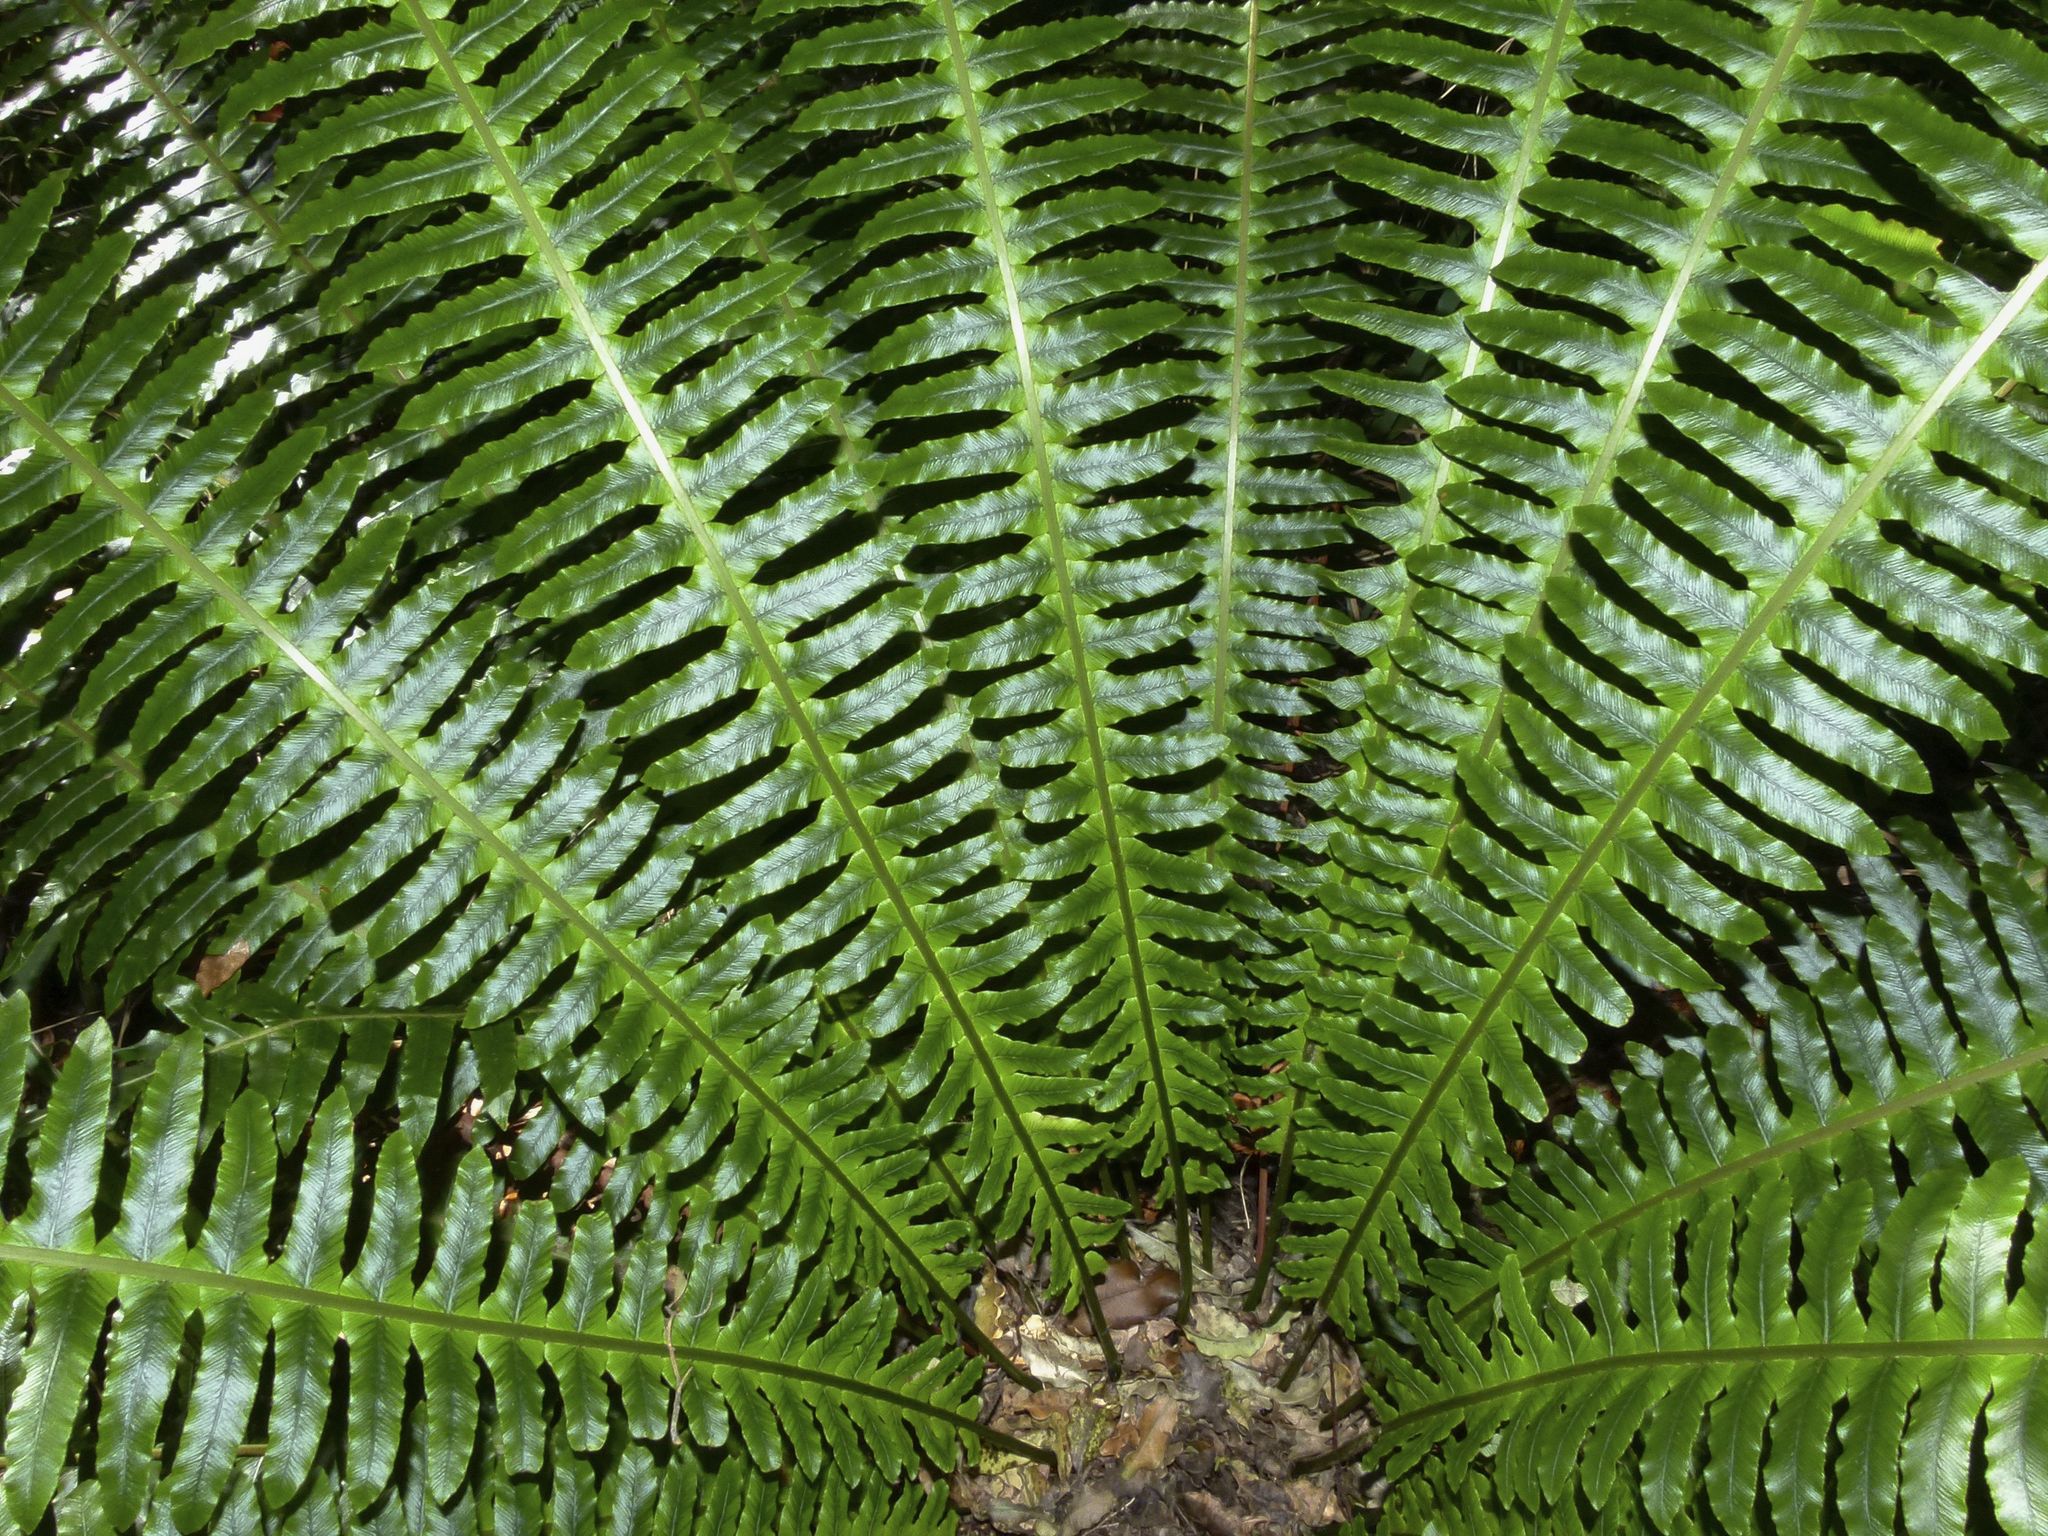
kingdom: Plantae
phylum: Tracheophyta
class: Polypodiopsida
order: Polypodiales
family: Blechnaceae
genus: Lomaria
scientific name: Lomaria discolor
